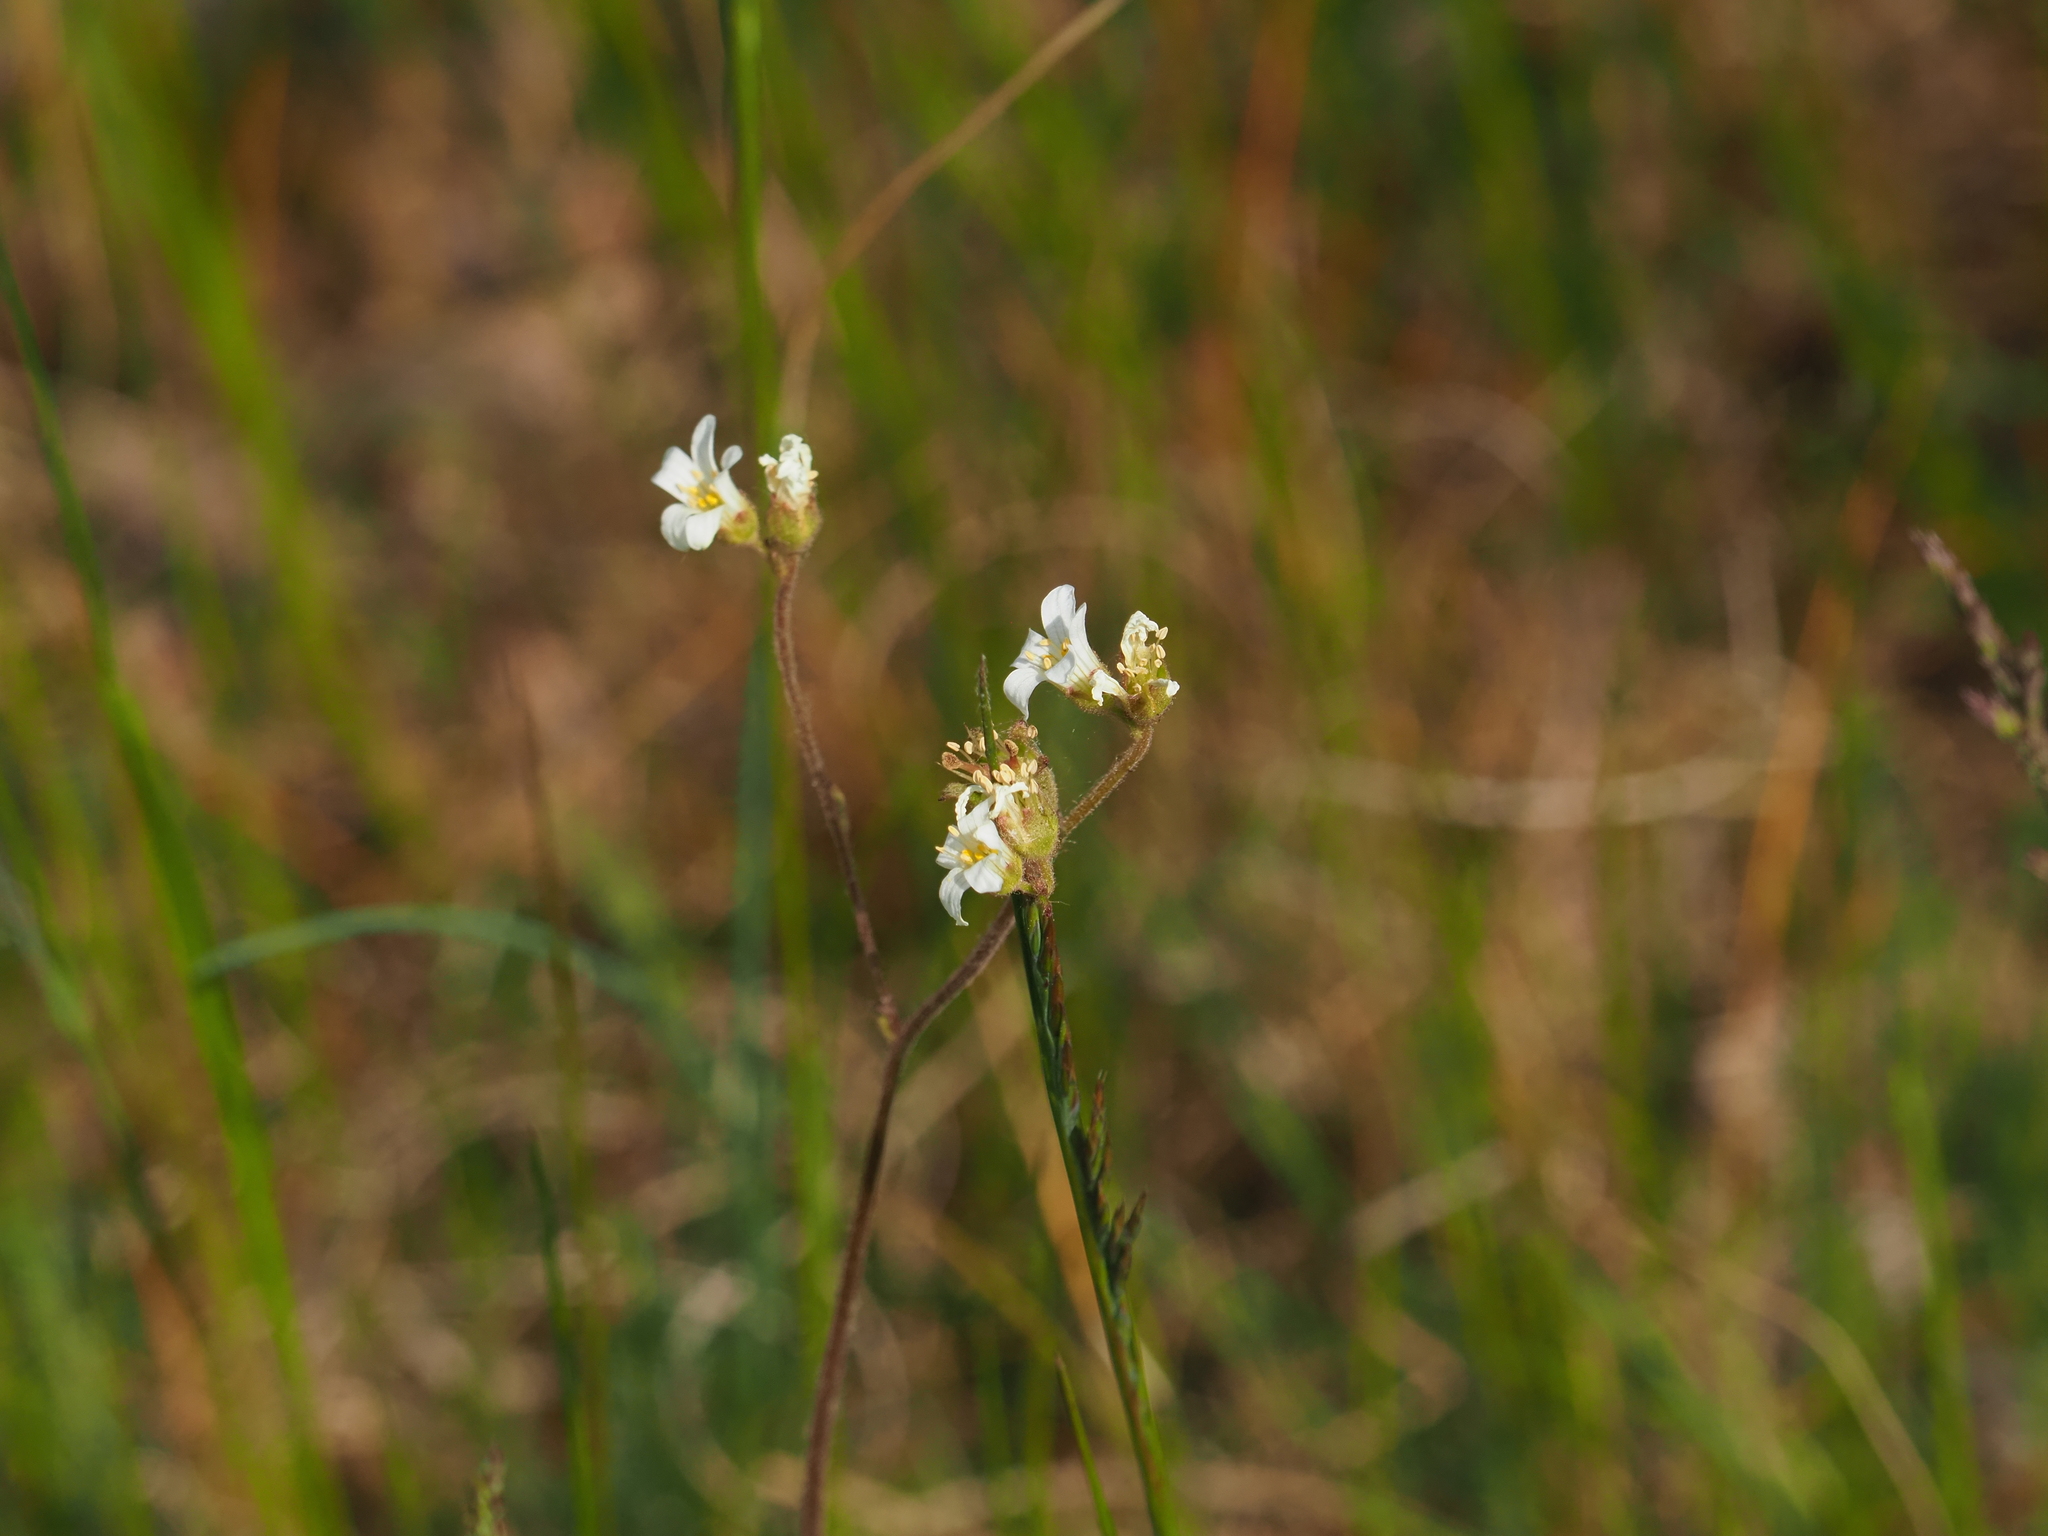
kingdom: Plantae
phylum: Tracheophyta
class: Magnoliopsida
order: Saxifragales
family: Saxifragaceae
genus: Saxifraga
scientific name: Saxifraga granulata
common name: Meadow saxifrage
